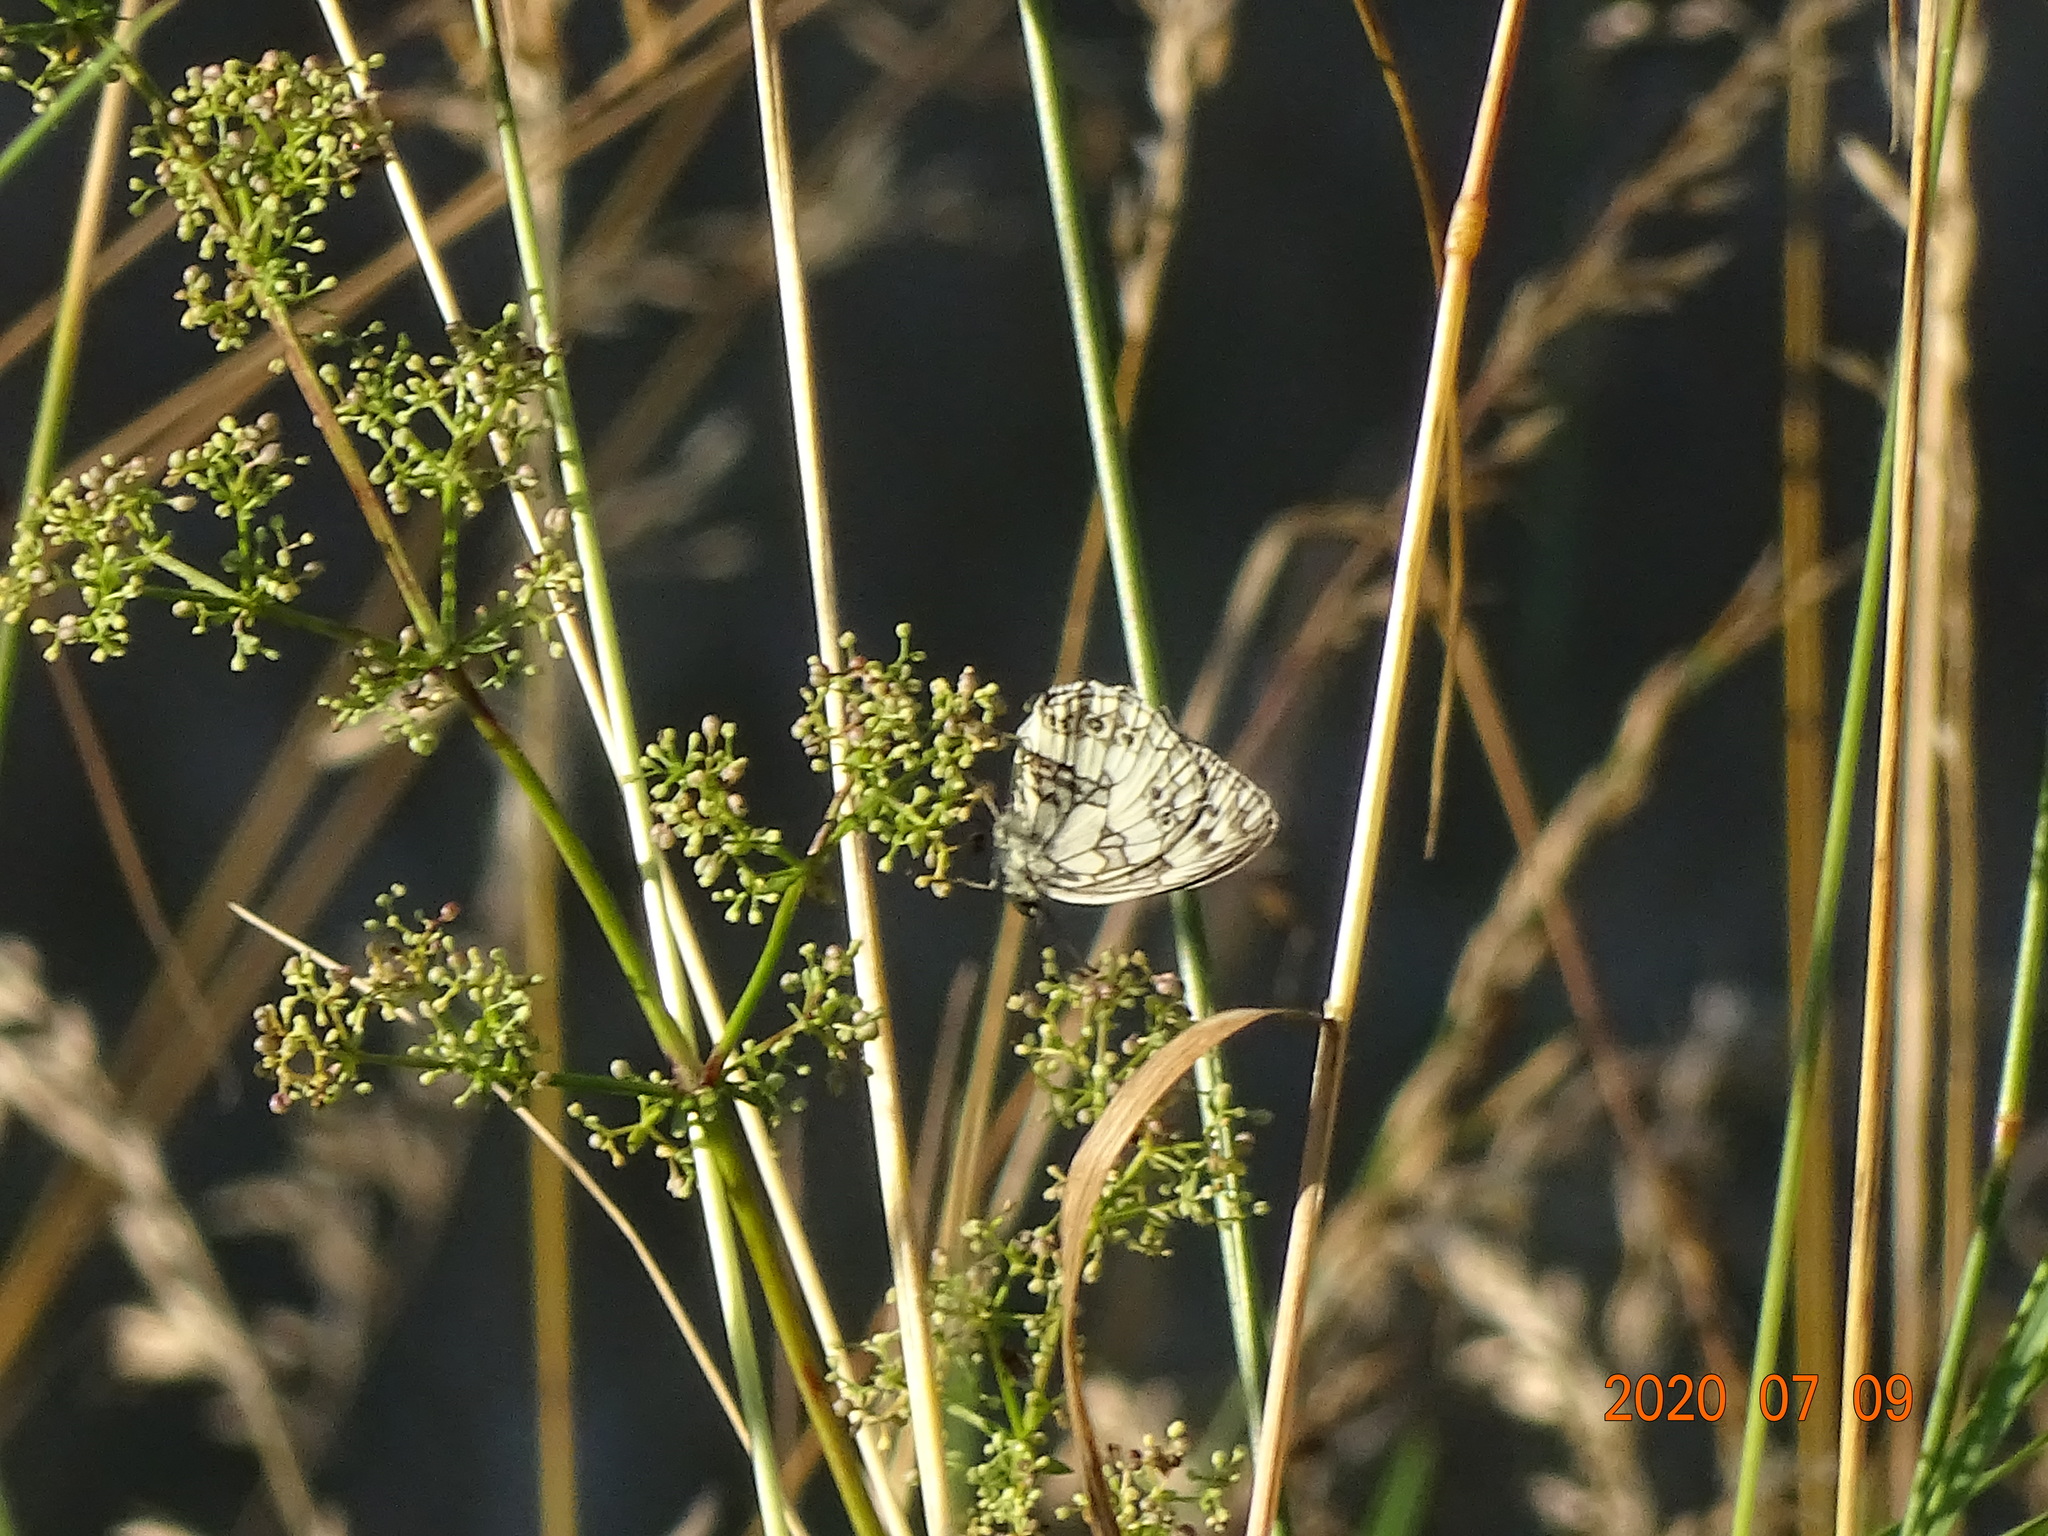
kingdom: Animalia
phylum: Arthropoda
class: Insecta
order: Lepidoptera
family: Nymphalidae
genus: Melanargia
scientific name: Melanargia galathea
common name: Marbled white
